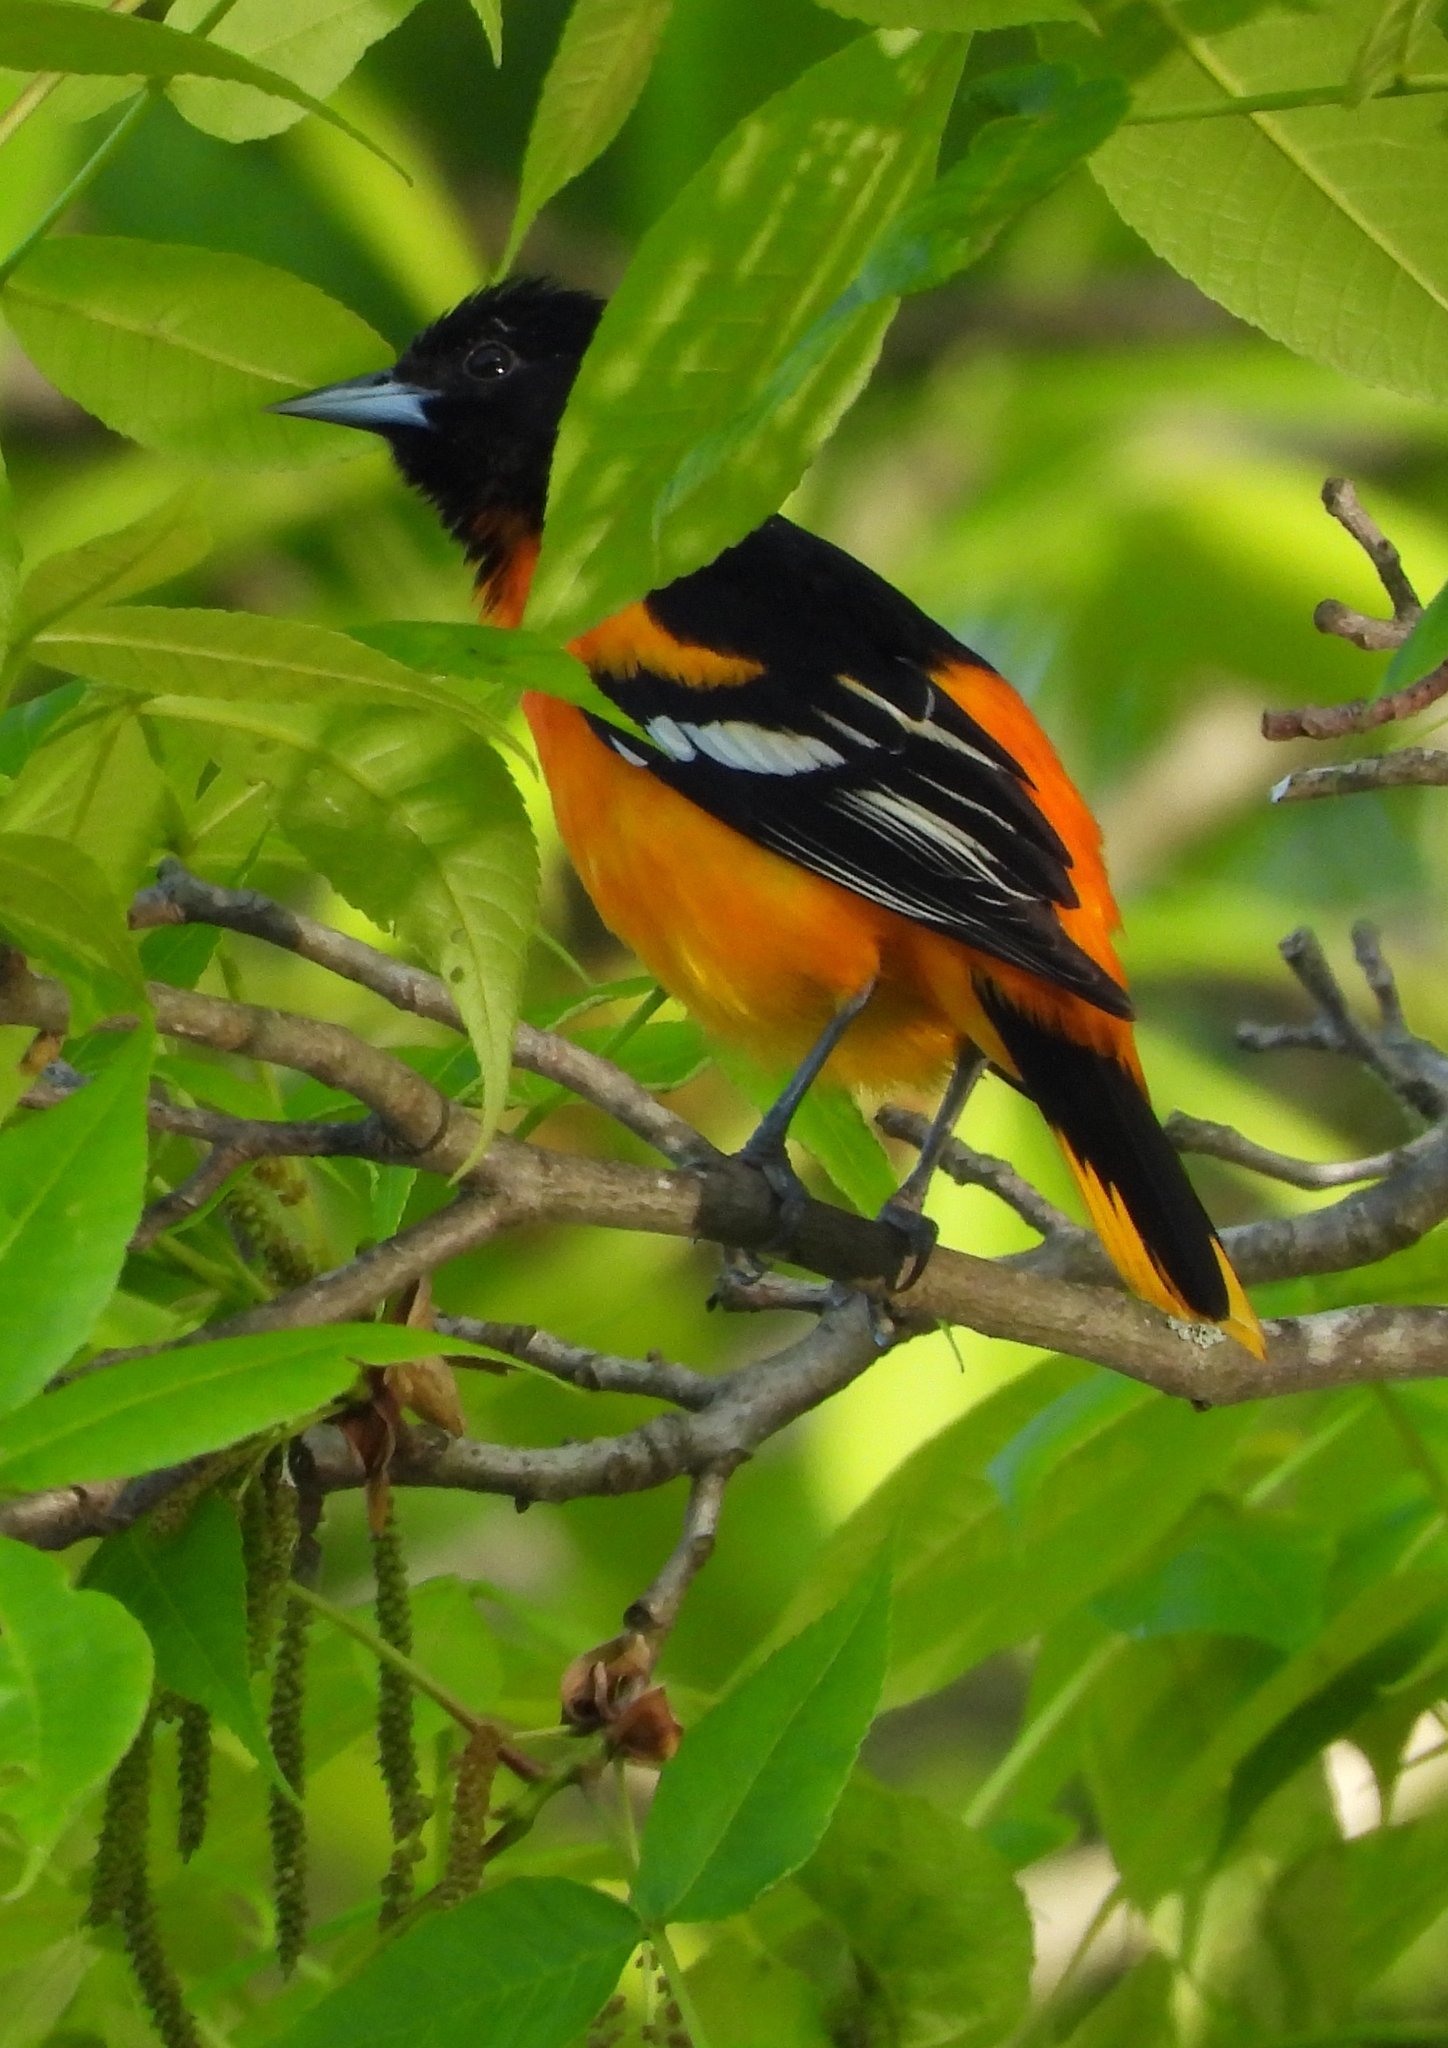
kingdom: Animalia
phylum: Chordata
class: Aves
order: Passeriformes
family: Icteridae
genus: Icterus
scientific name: Icterus galbula
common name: Baltimore oriole
